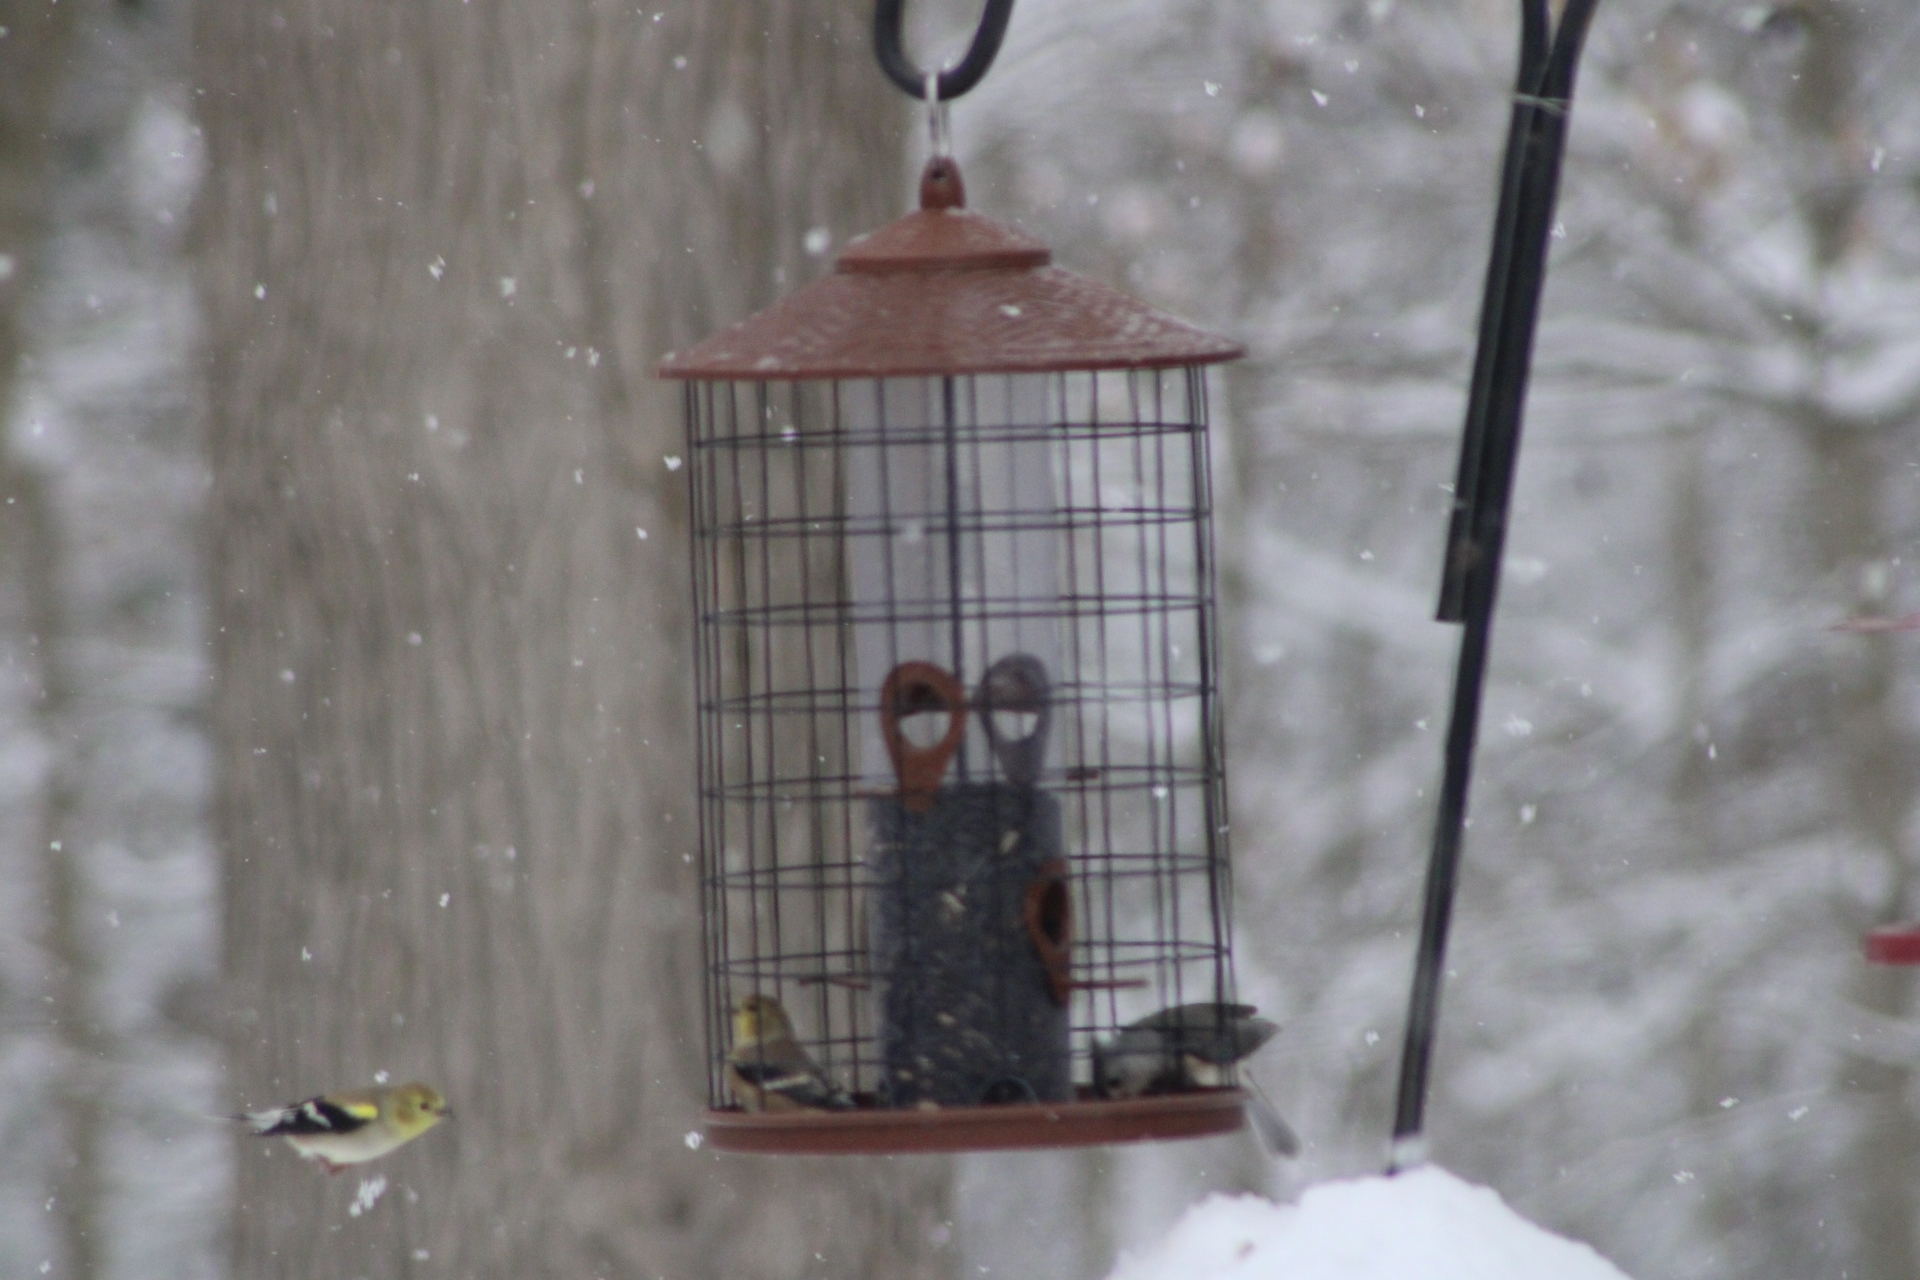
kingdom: Animalia
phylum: Chordata
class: Aves
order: Passeriformes
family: Fringillidae
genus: Spinus
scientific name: Spinus tristis
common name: American goldfinch
